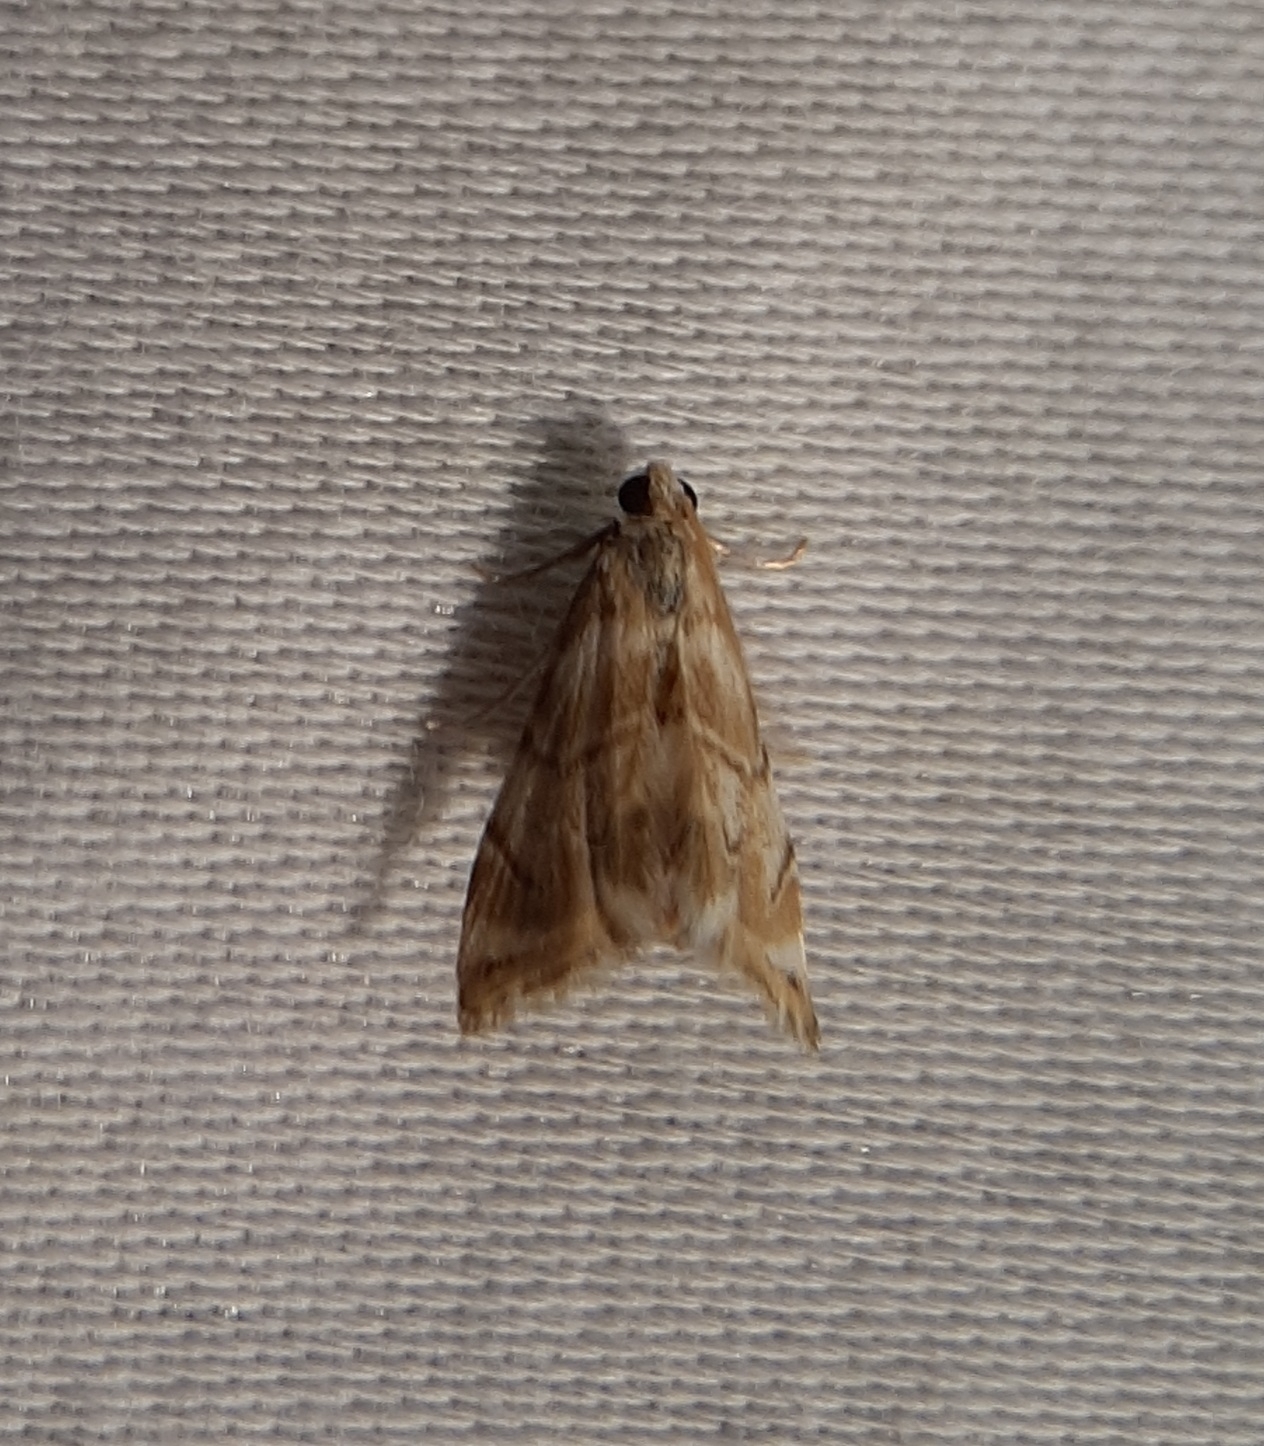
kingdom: Animalia
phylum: Arthropoda
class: Insecta
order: Lepidoptera
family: Crambidae
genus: Eoparargyractis
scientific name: Eoparargyractis plevie
